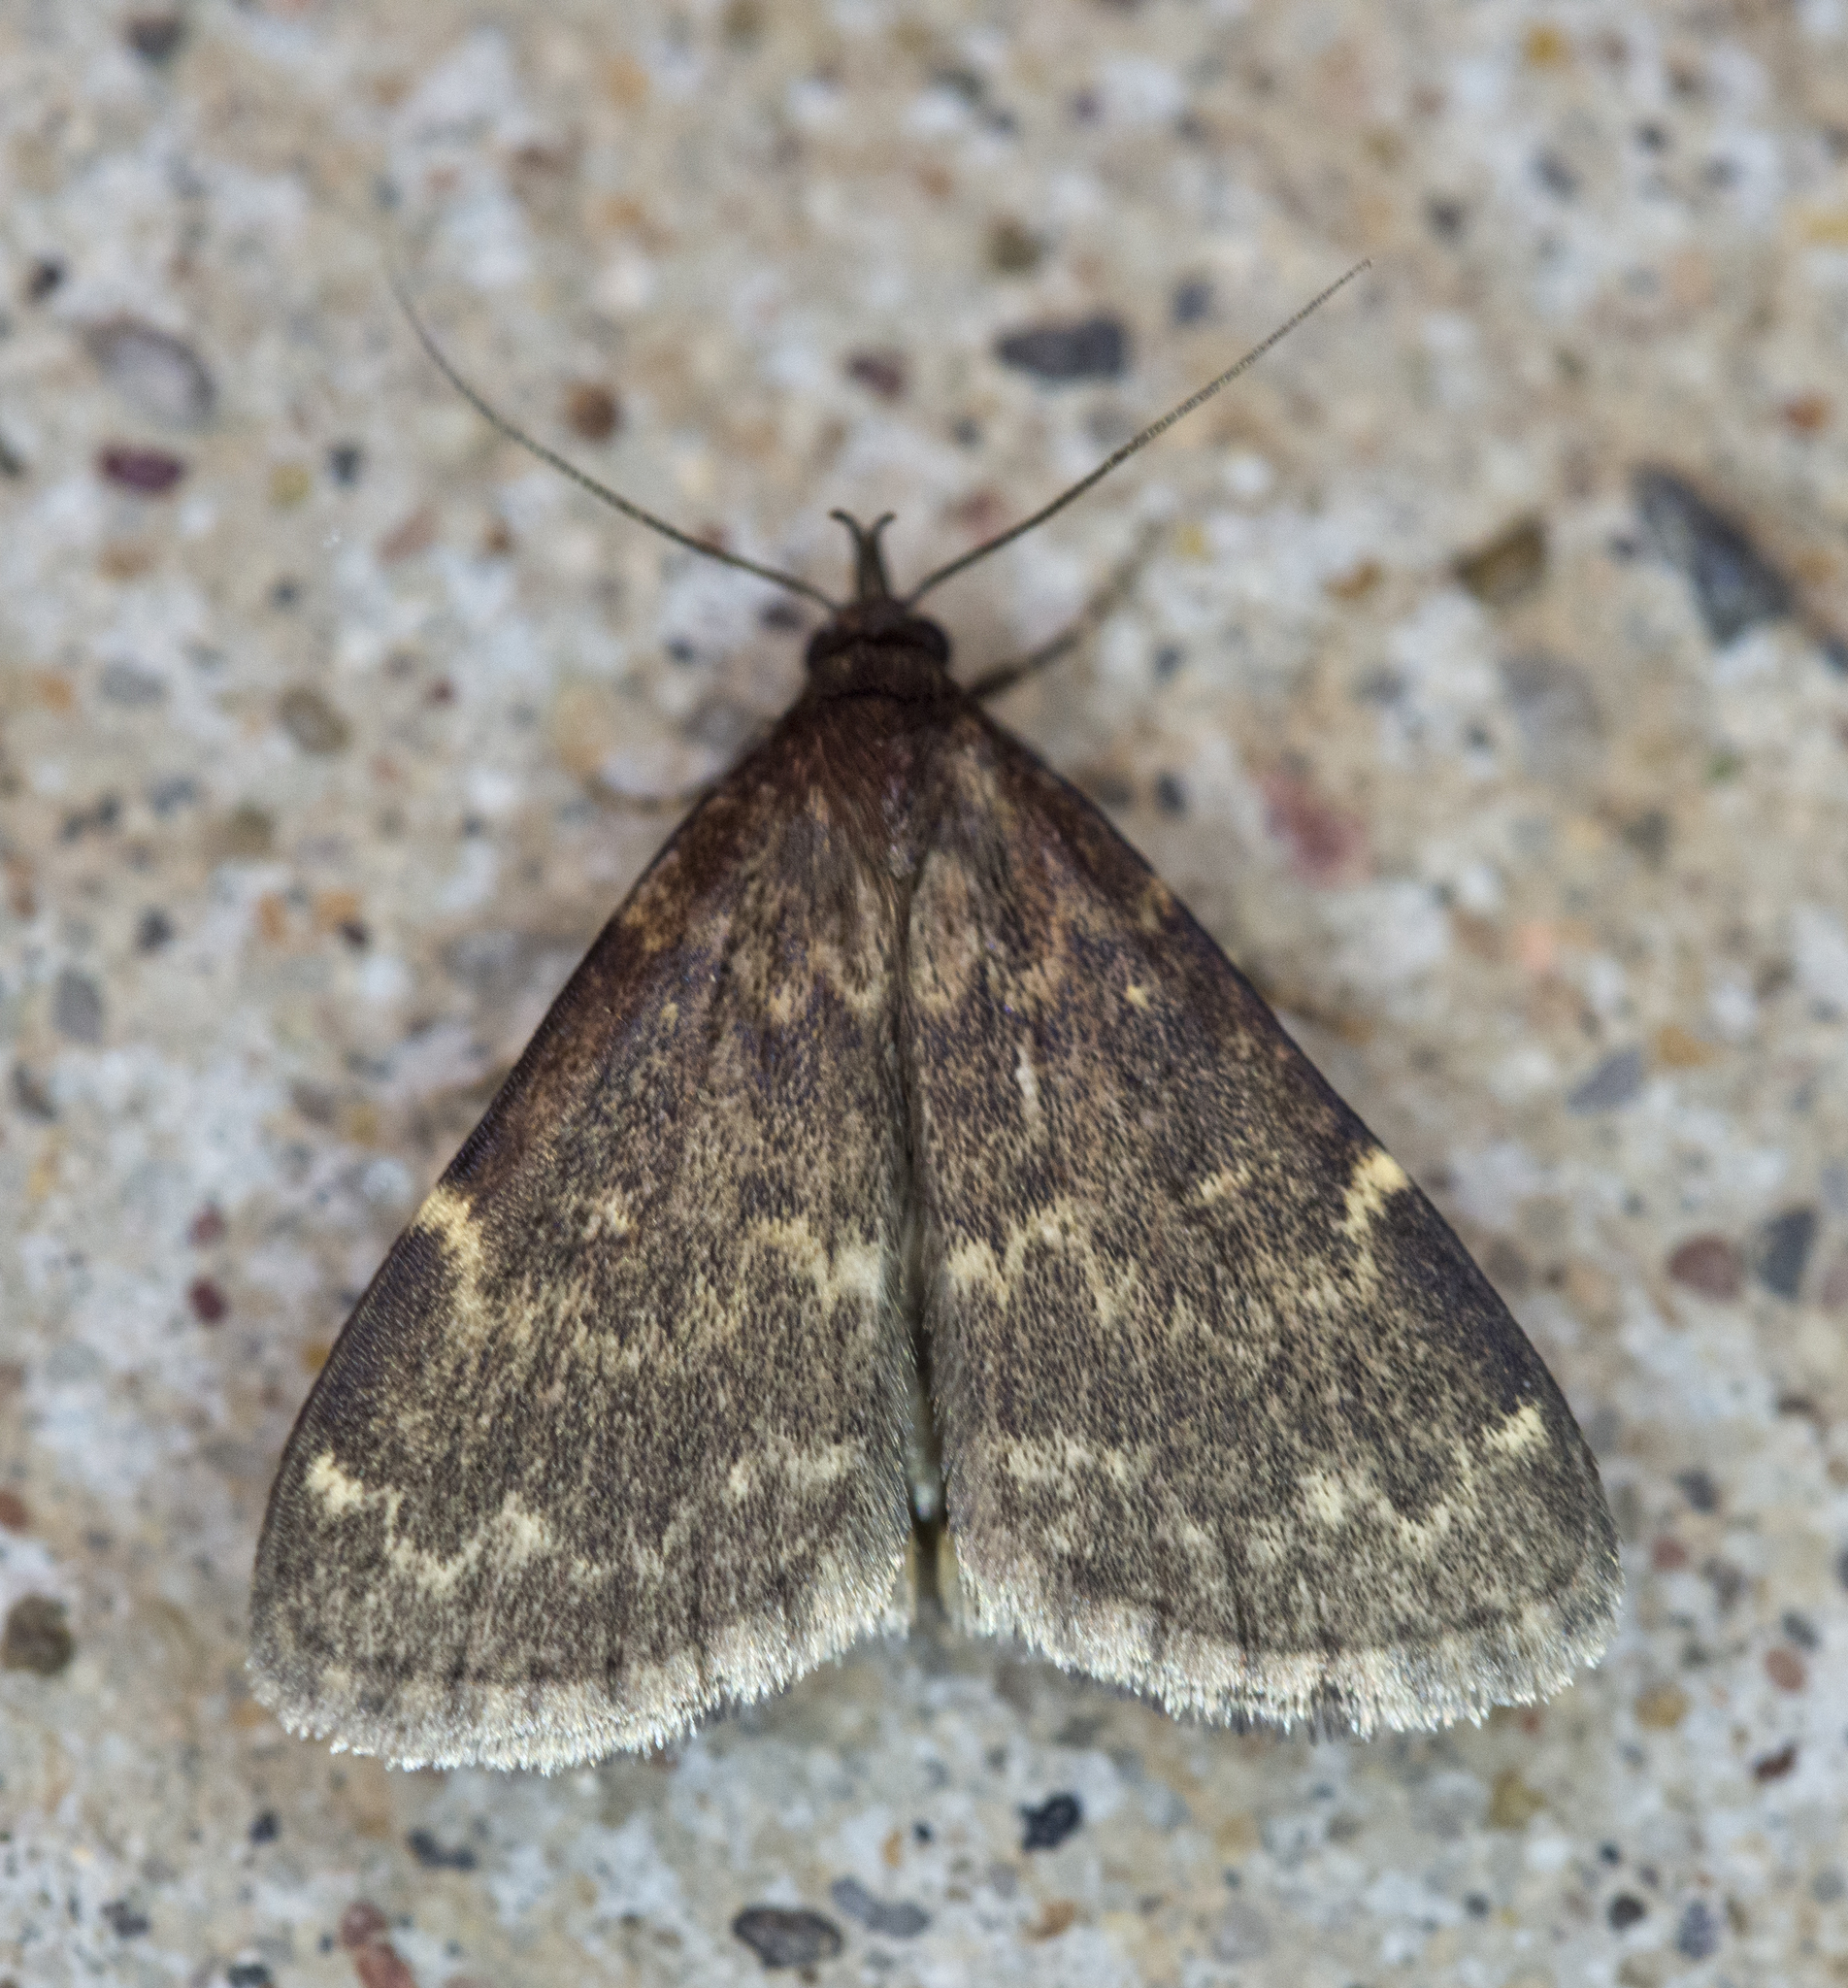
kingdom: Animalia
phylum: Arthropoda
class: Insecta
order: Lepidoptera
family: Erebidae
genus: Idia
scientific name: Idia lubricalis
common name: Twin-striped tabby
